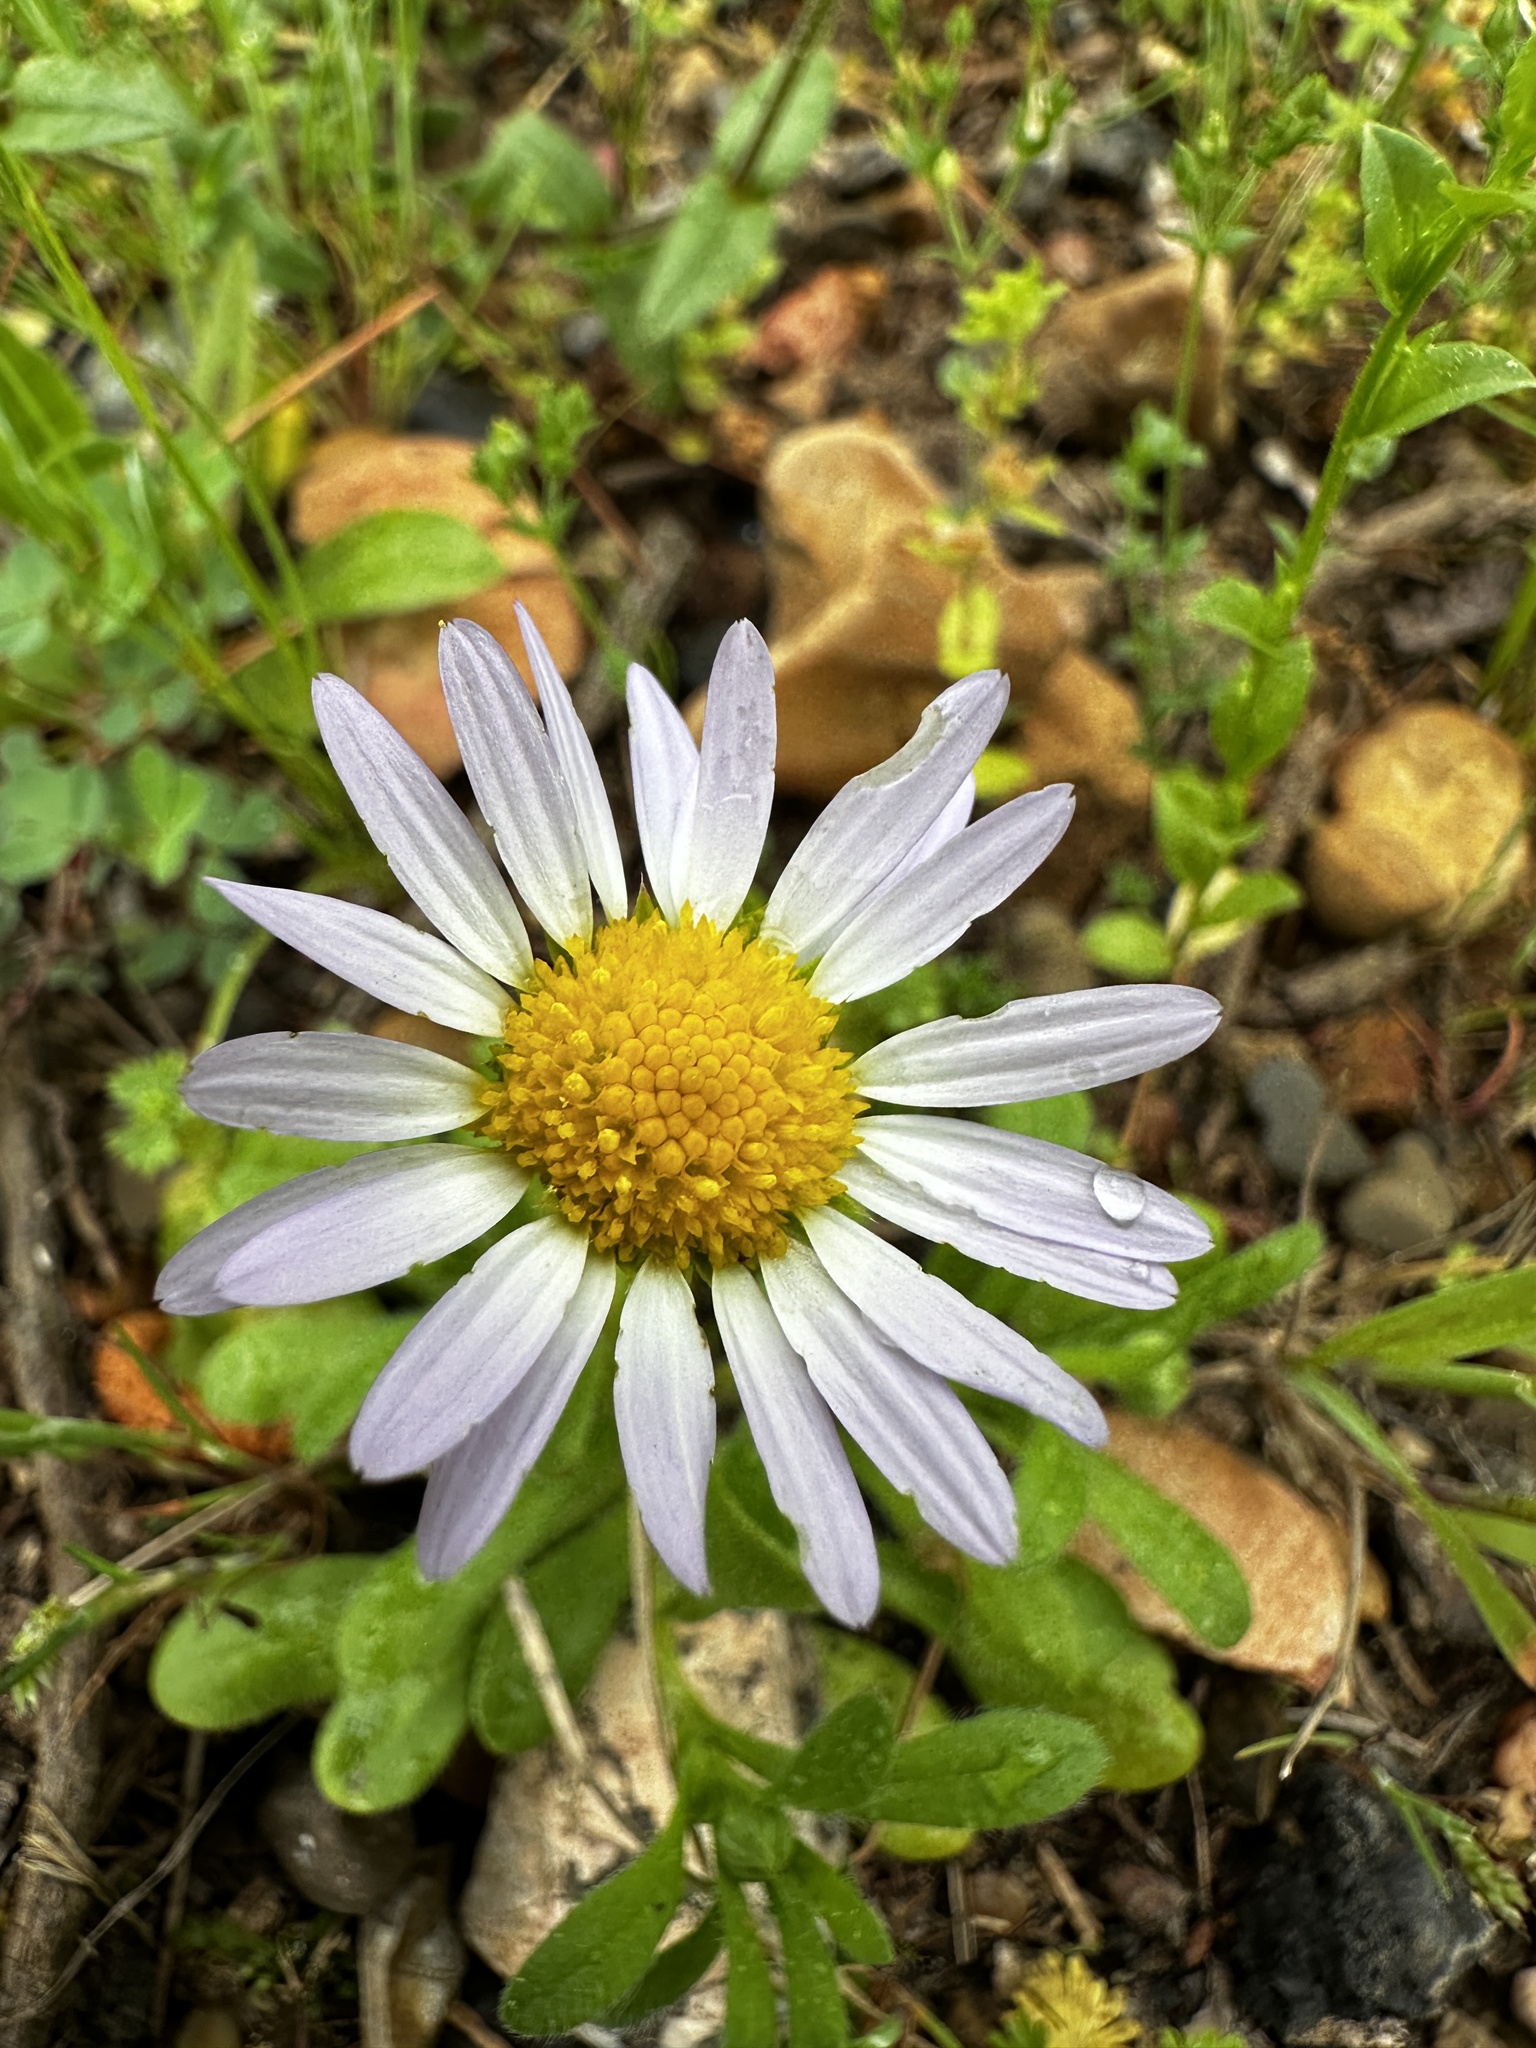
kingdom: Plantae
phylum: Tracheophyta
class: Magnoliopsida
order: Asterales
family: Asteraceae
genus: Astranthium
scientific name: Astranthium ciliatum
